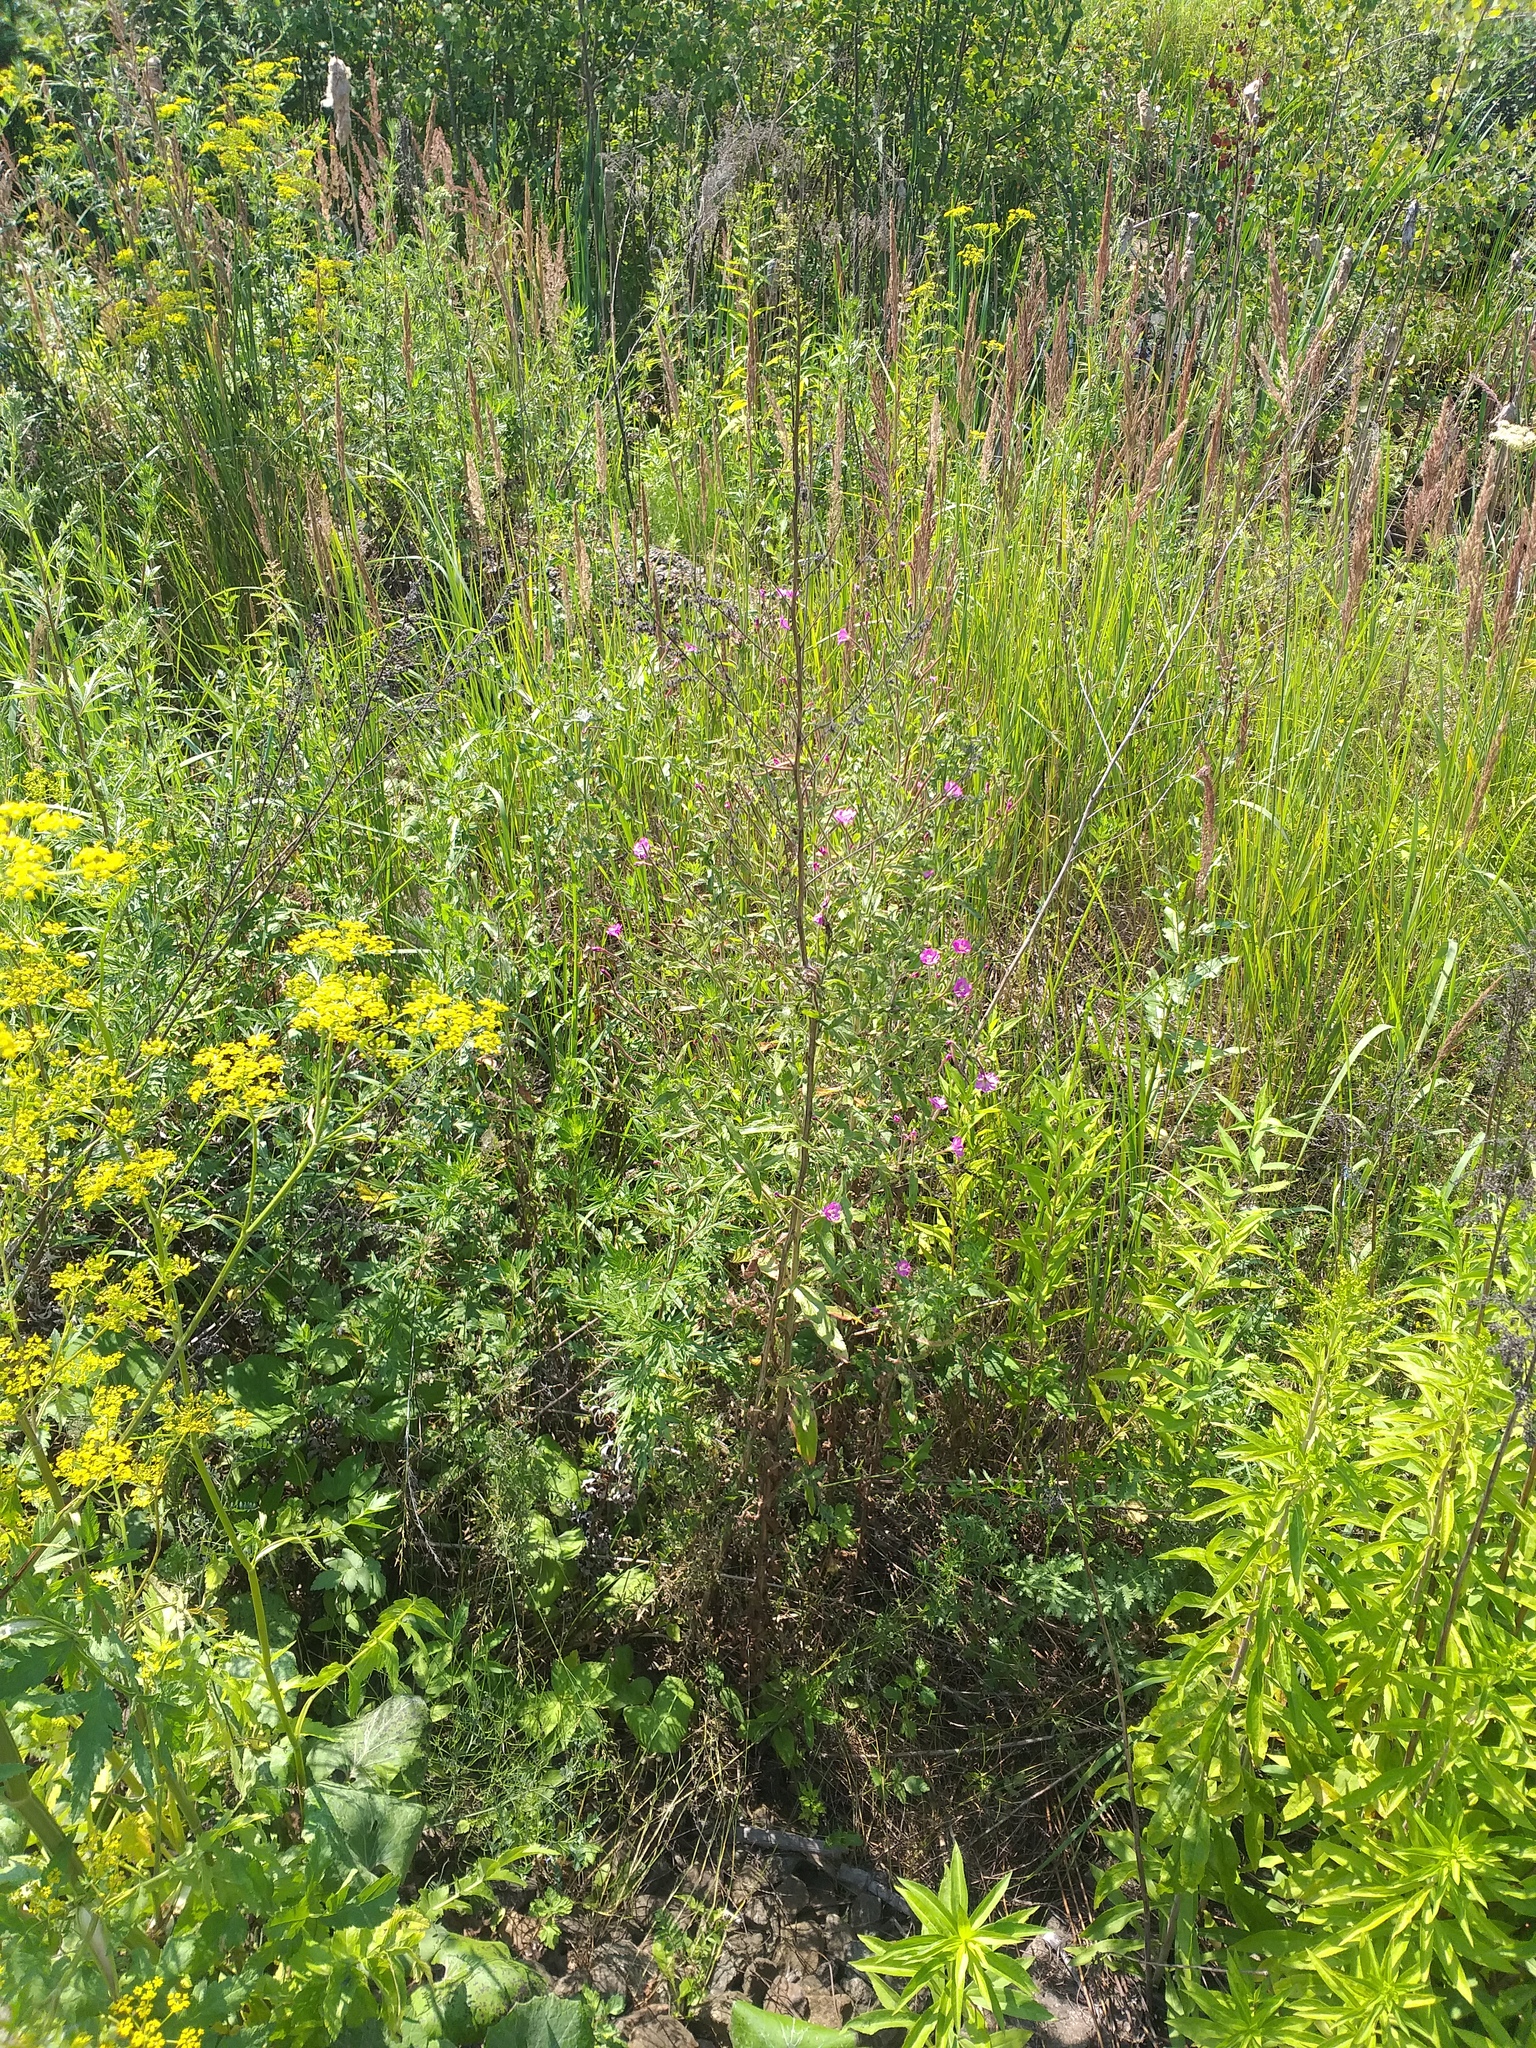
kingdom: Plantae
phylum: Tracheophyta
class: Magnoliopsida
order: Myrtales
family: Onagraceae
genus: Epilobium
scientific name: Epilobium hirsutum
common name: Great willowherb
